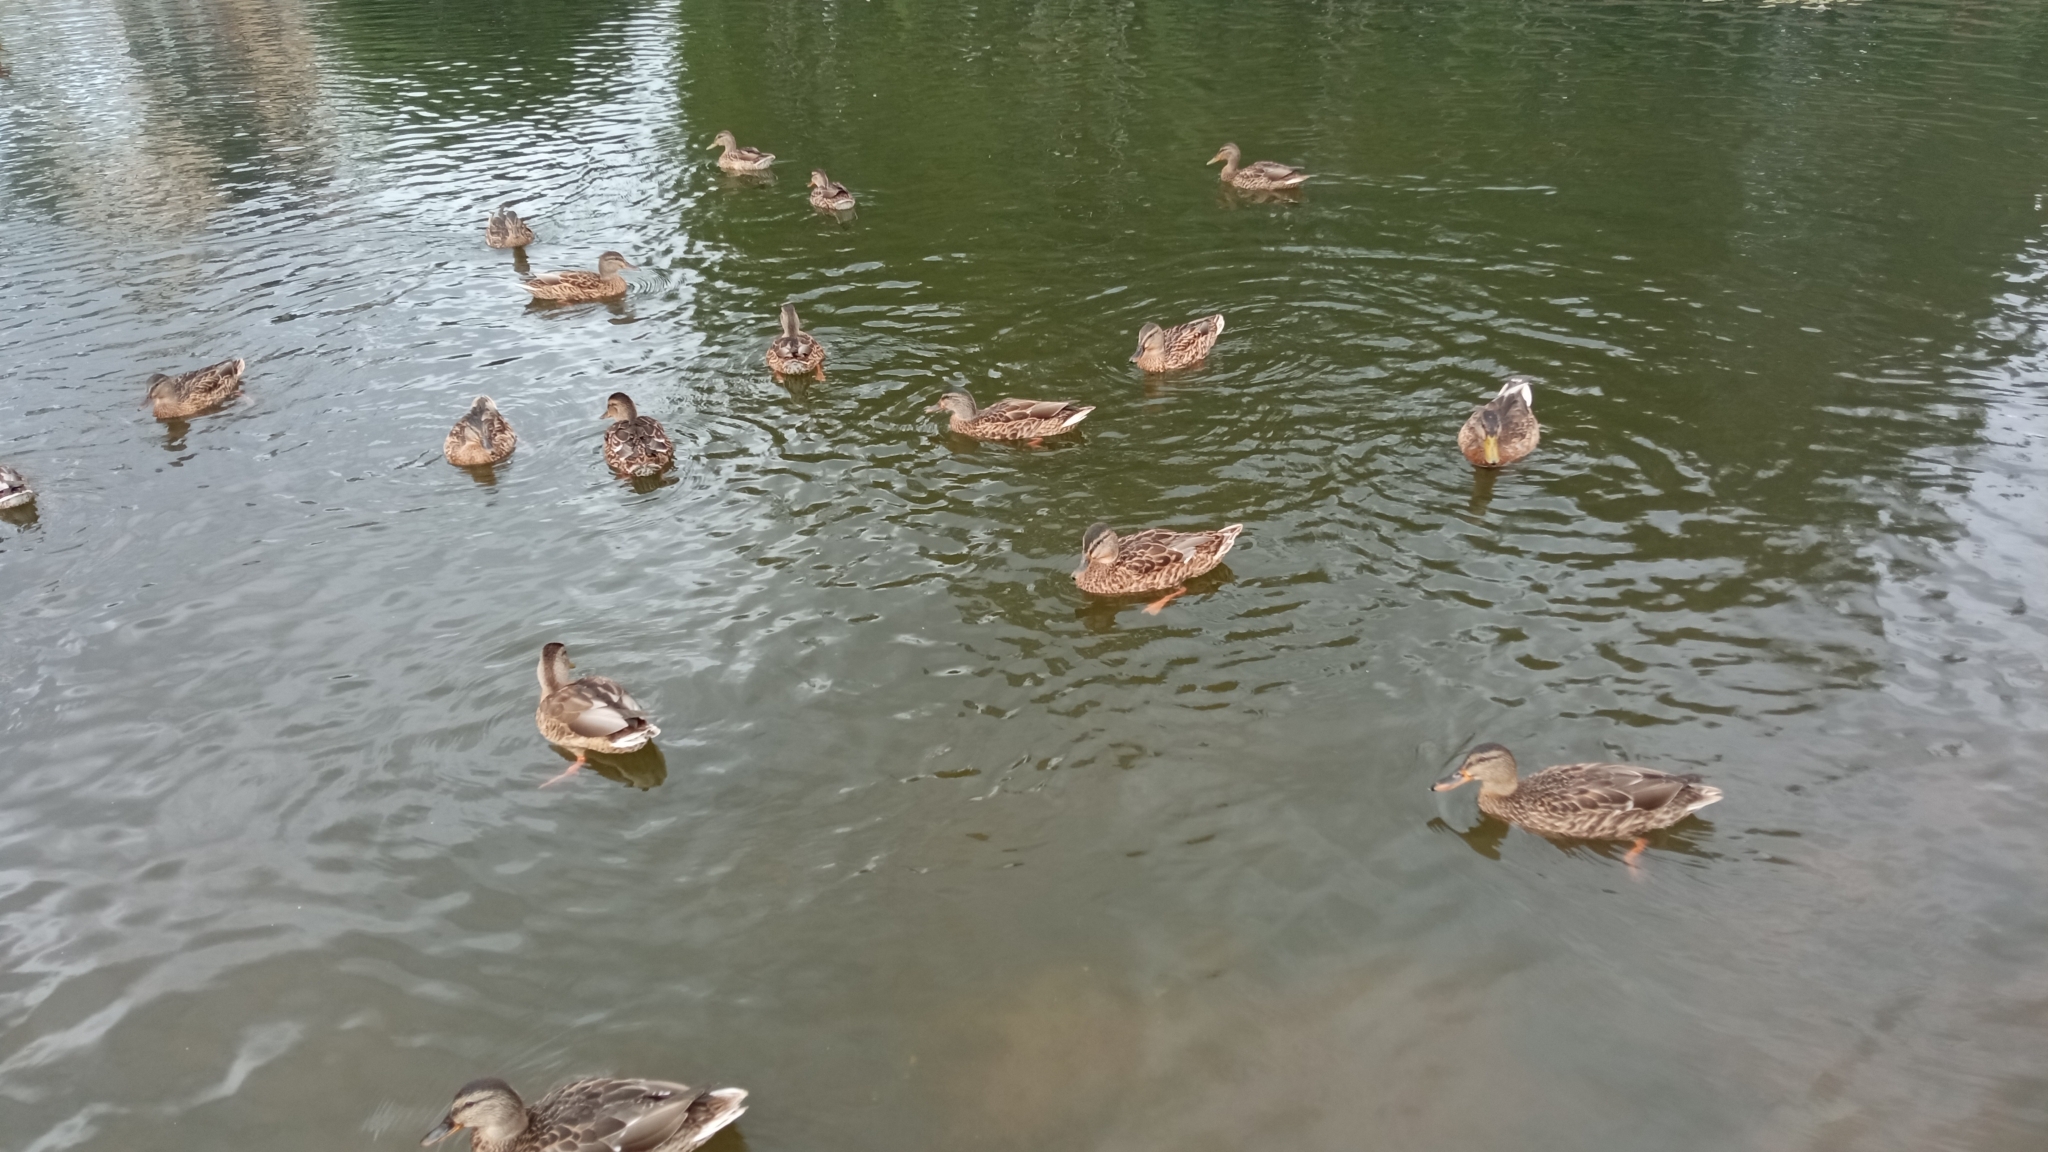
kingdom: Animalia
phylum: Chordata
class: Aves
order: Anseriformes
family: Anatidae
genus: Anas
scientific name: Anas platyrhynchos
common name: Mallard
